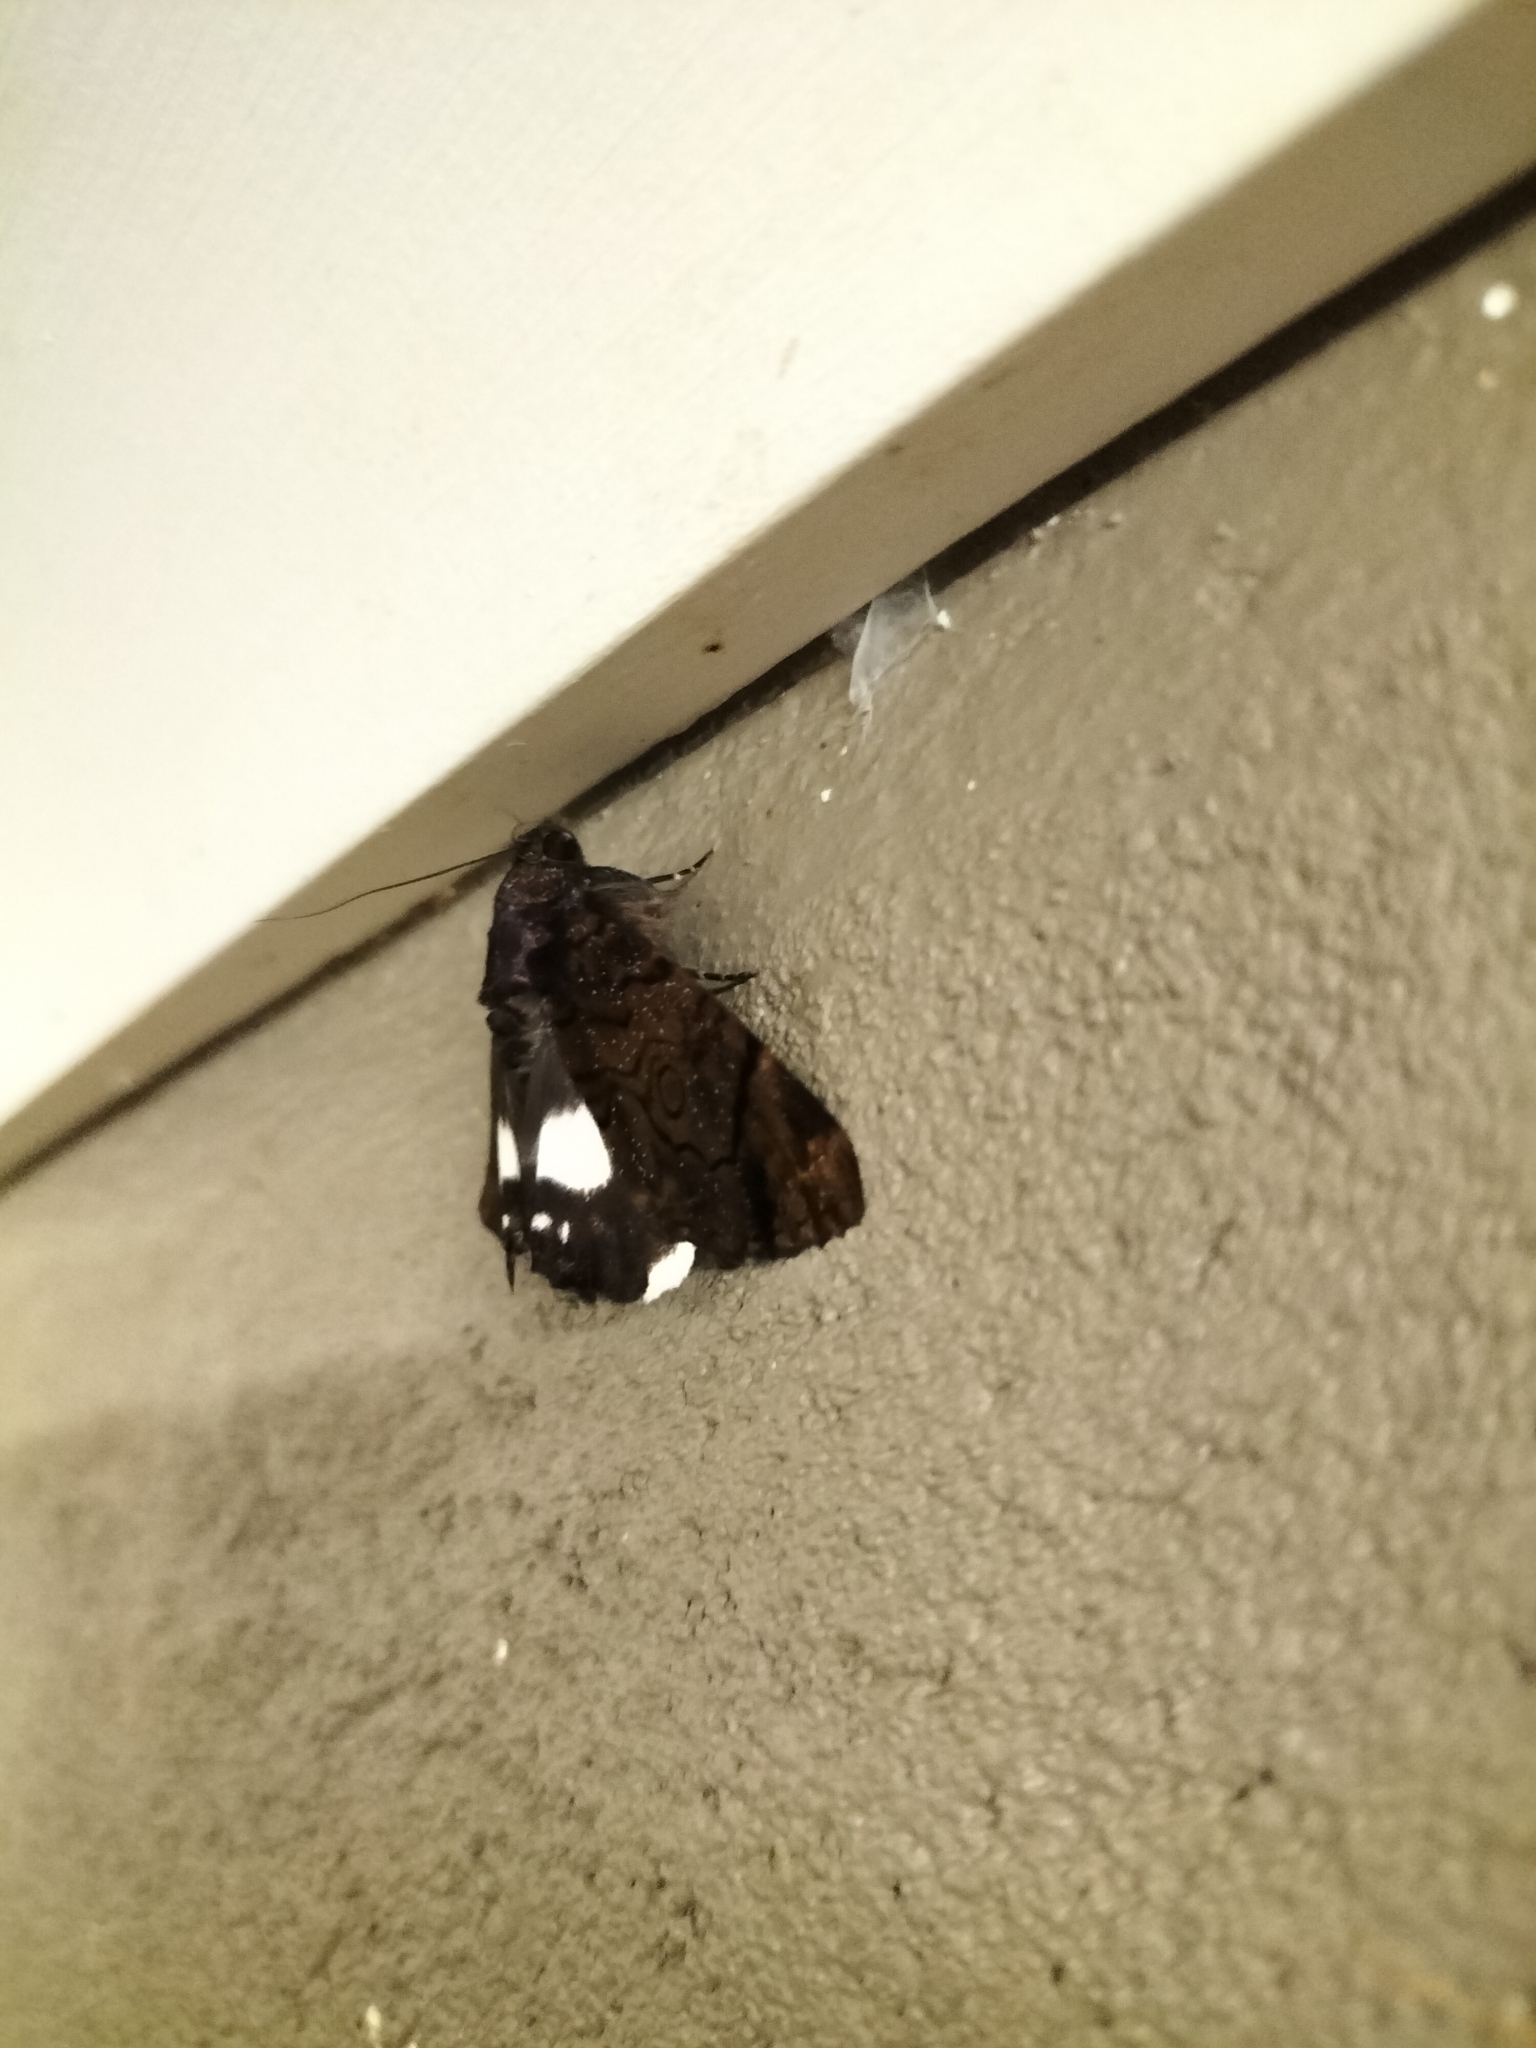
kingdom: Animalia
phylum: Arthropoda
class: Insecta
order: Lepidoptera
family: Erebidae
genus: Catephia
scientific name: Catephia linteola
